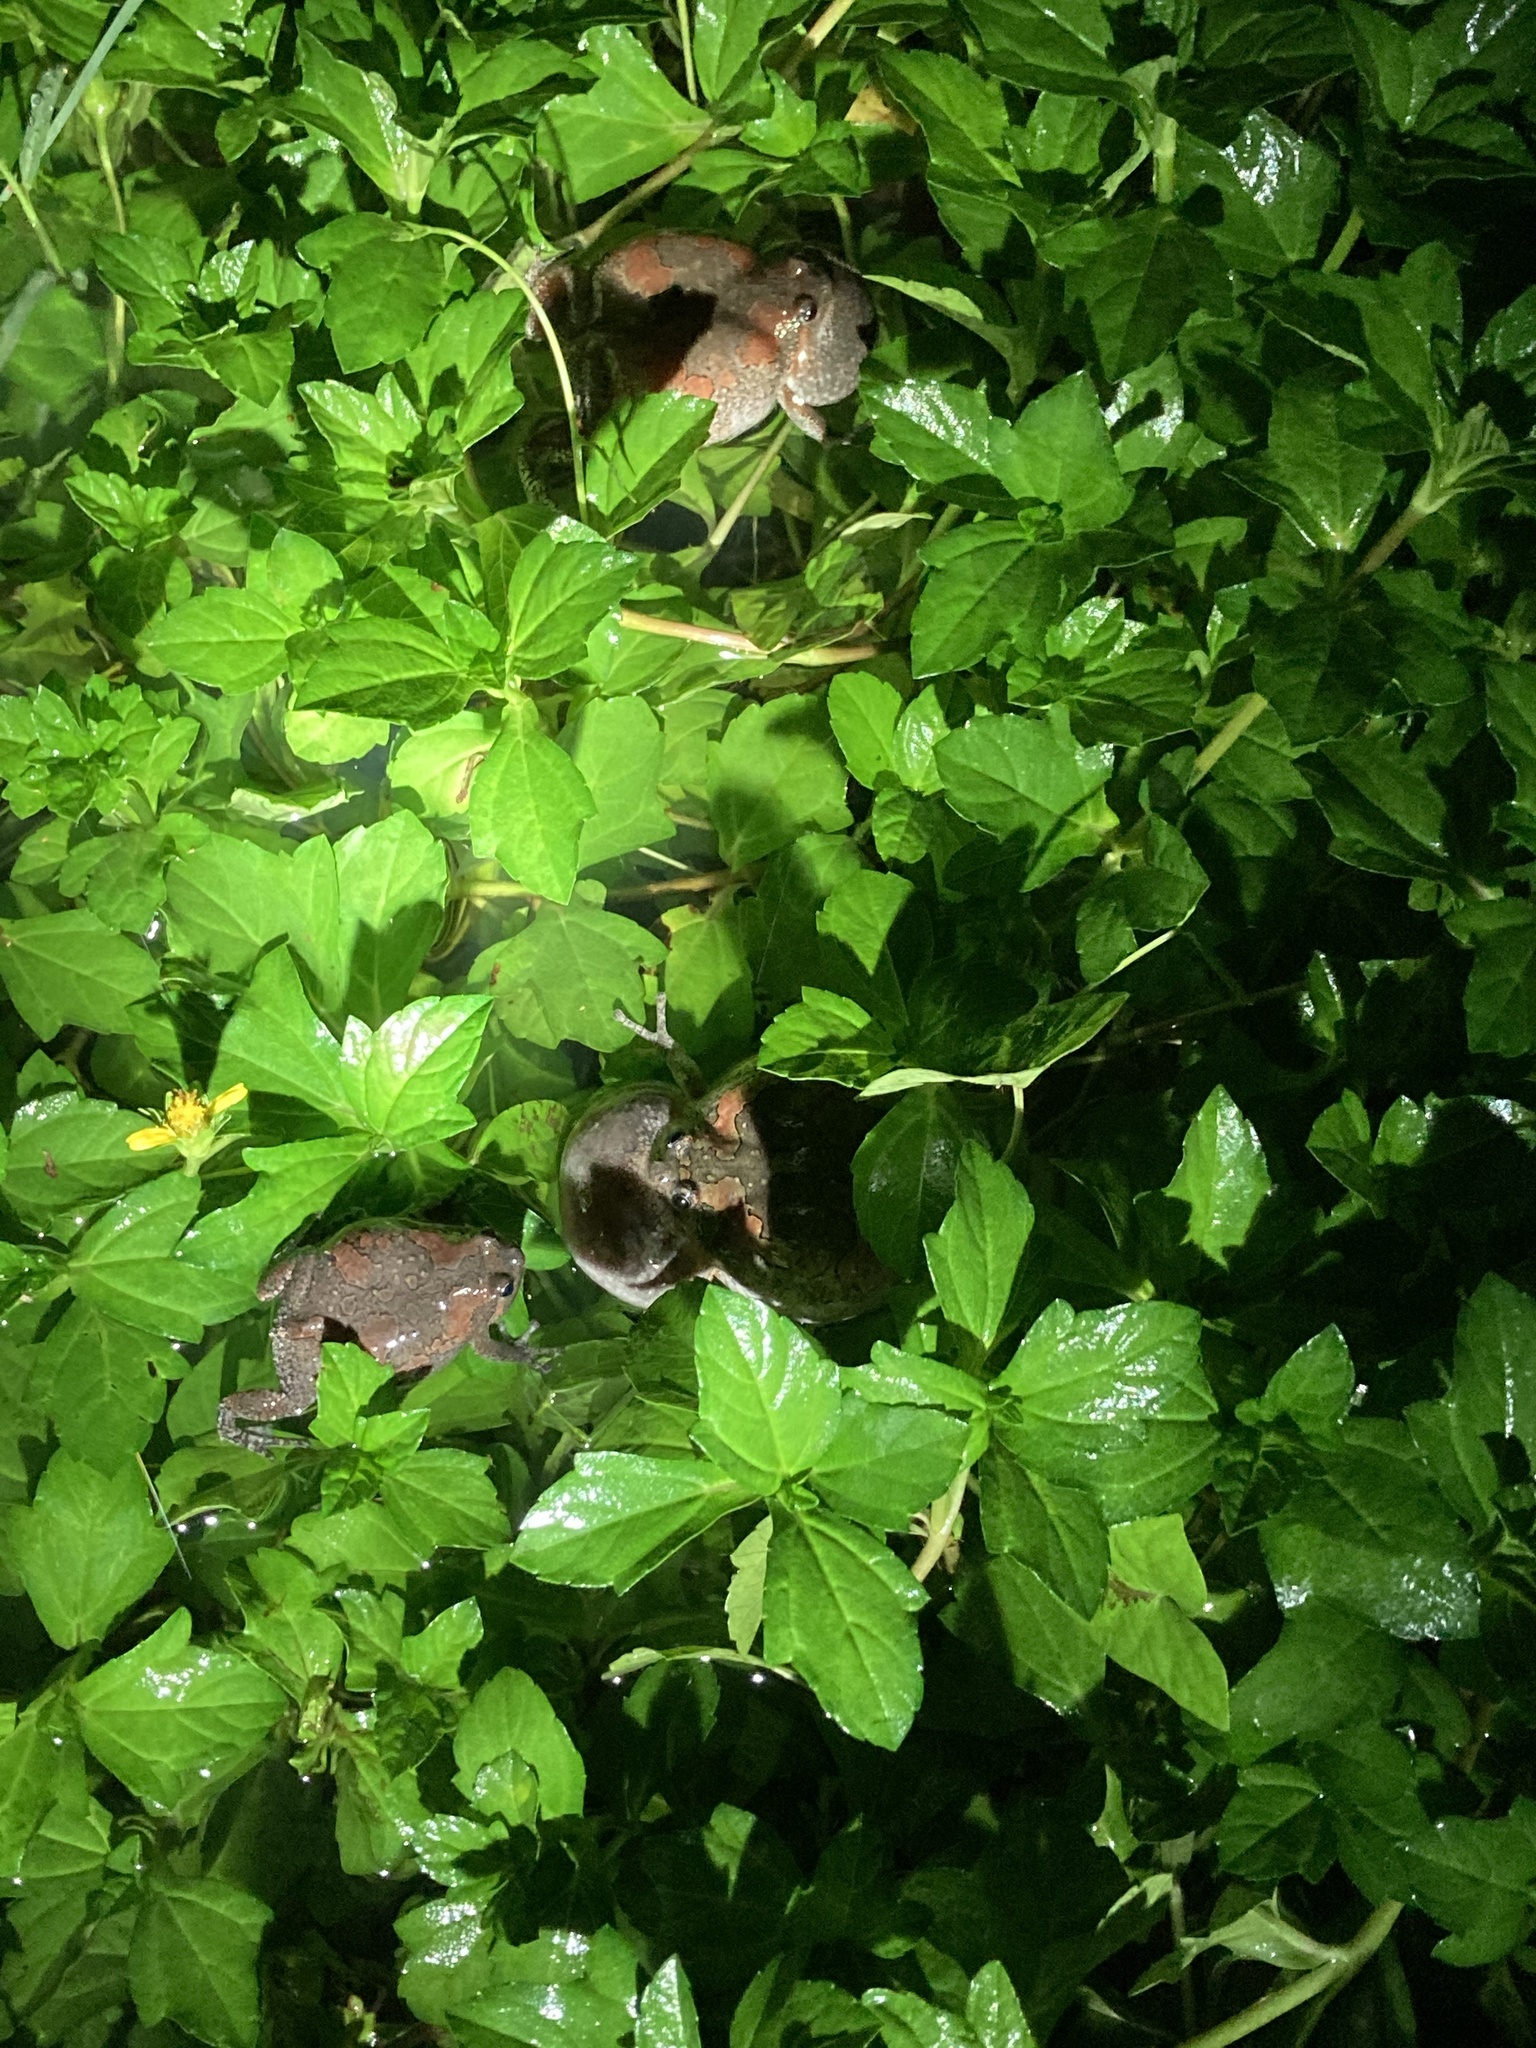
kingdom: Animalia
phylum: Chordata
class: Amphibia
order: Anura
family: Microhylidae
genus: Uperodon
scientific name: Uperodon taprobanicus
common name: Ceylon kaloula
